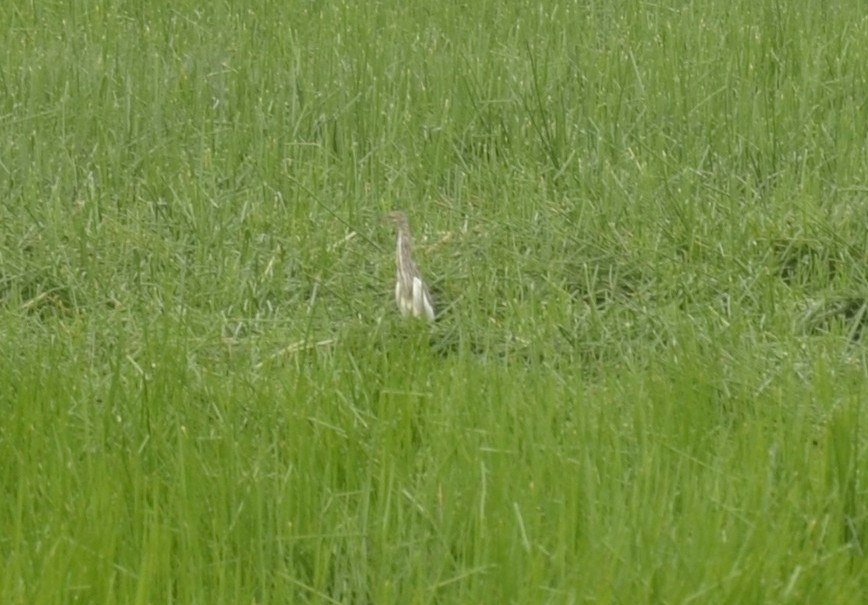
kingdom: Animalia
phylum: Chordata
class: Aves
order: Pelecaniformes
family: Ardeidae
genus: Ardeola
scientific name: Ardeola grayii
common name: Indian pond heron
